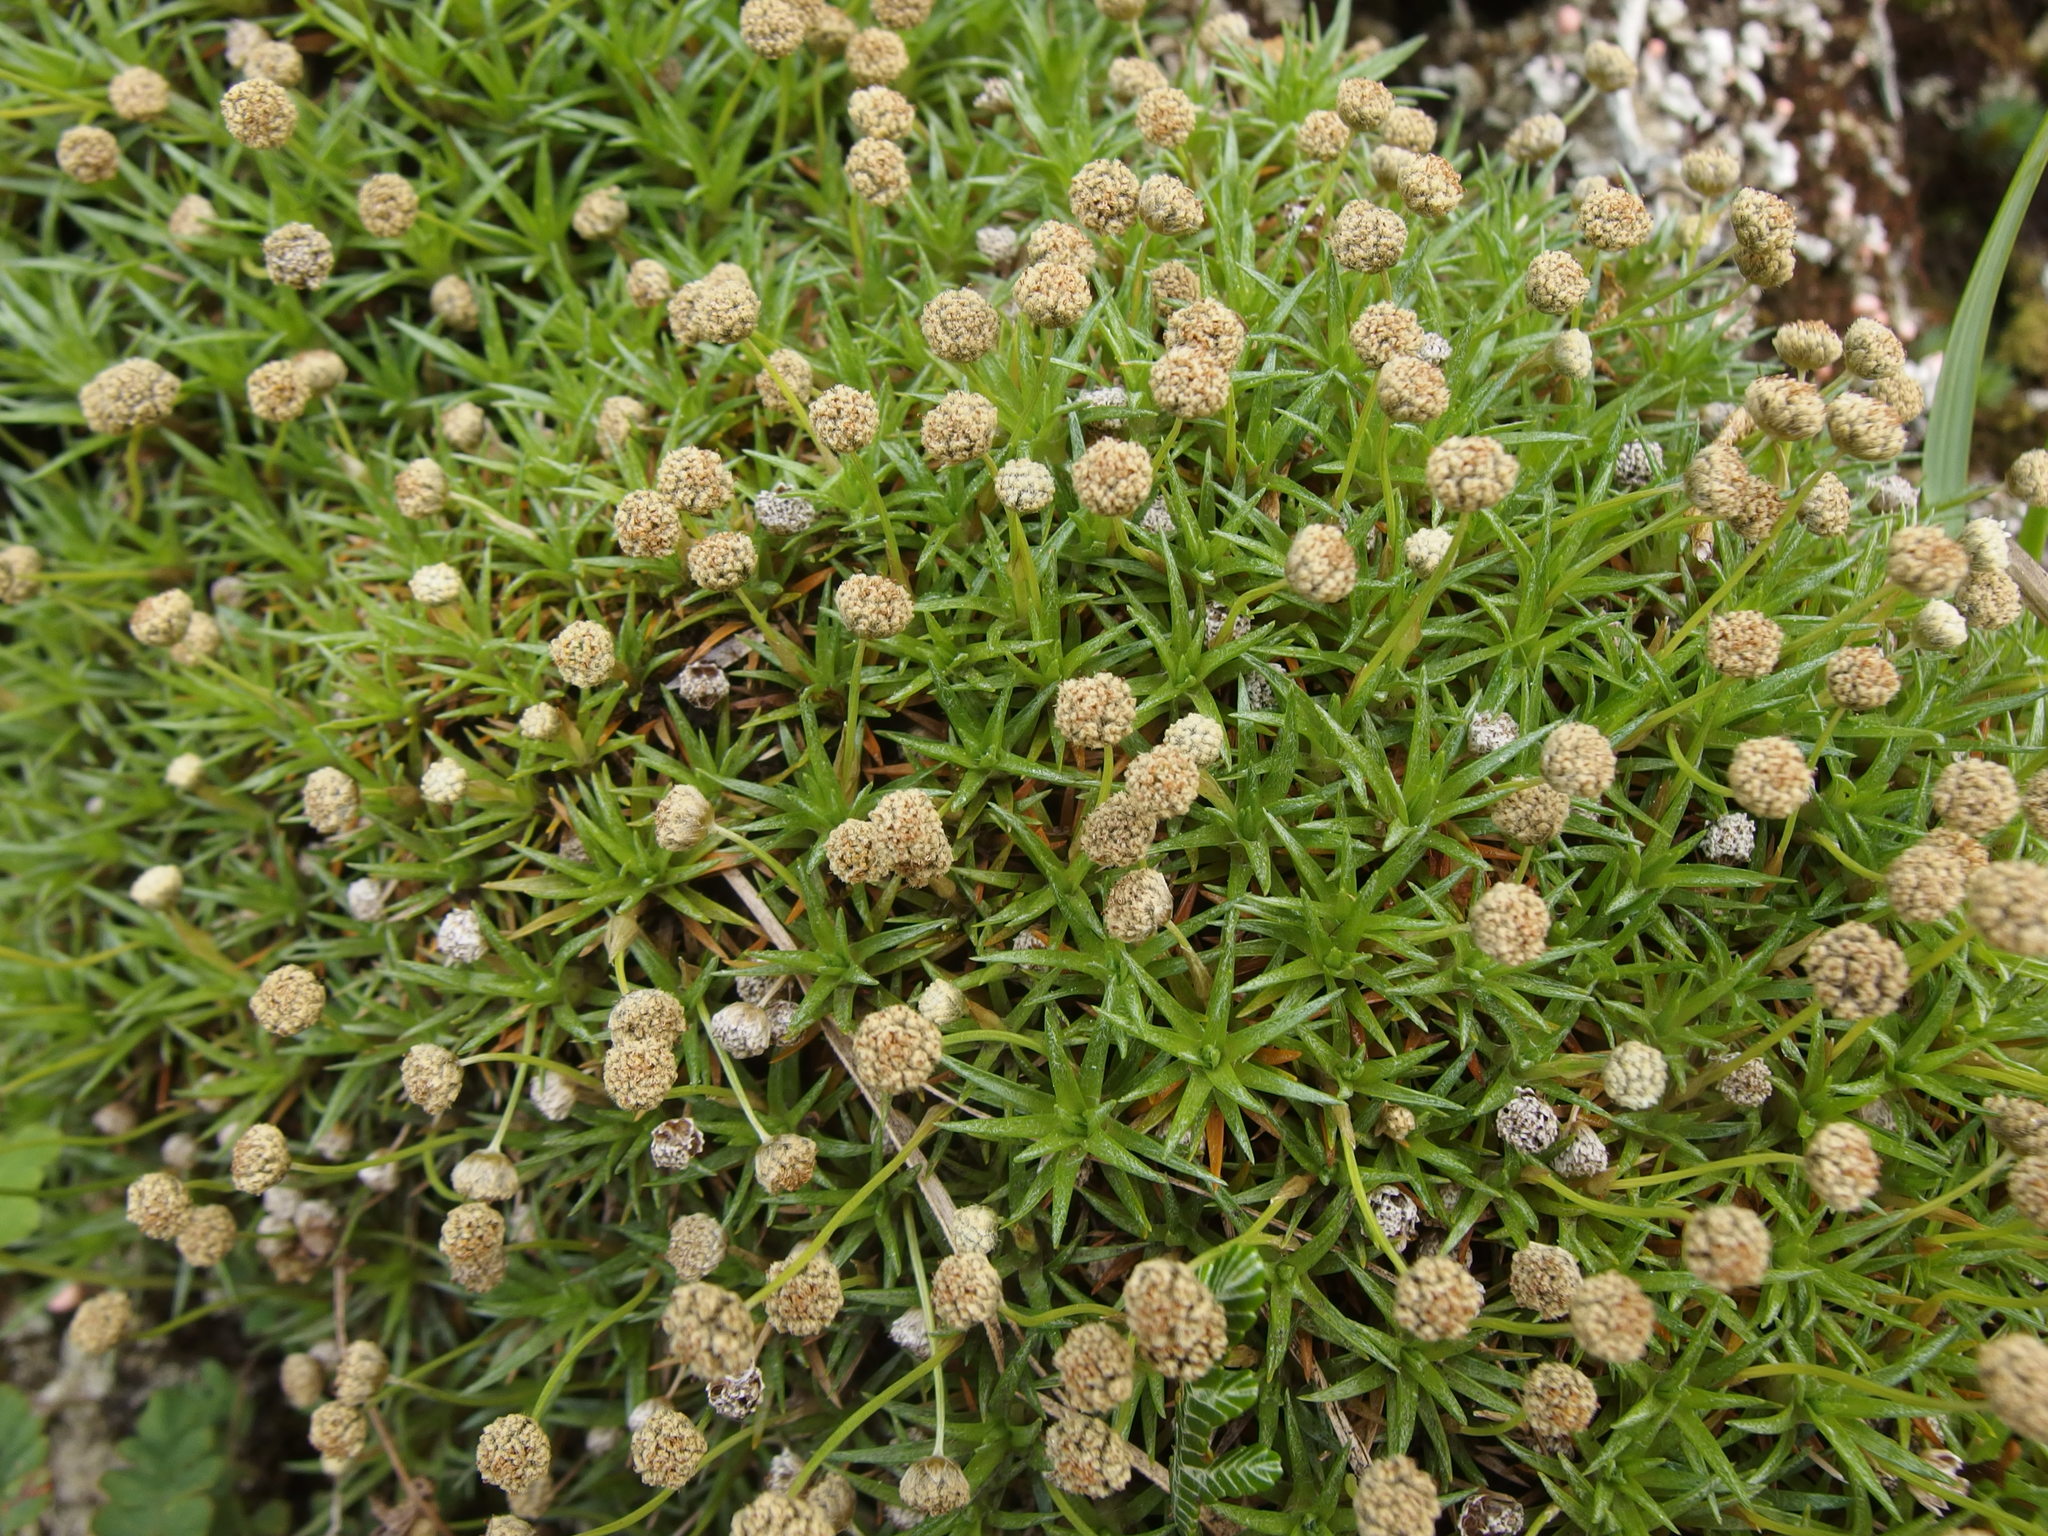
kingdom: Plantae
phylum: Tracheophyta
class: Liliopsida
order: Poales
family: Eriocaulaceae
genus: Paepalanthus
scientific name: Paepalanthus pilosus
